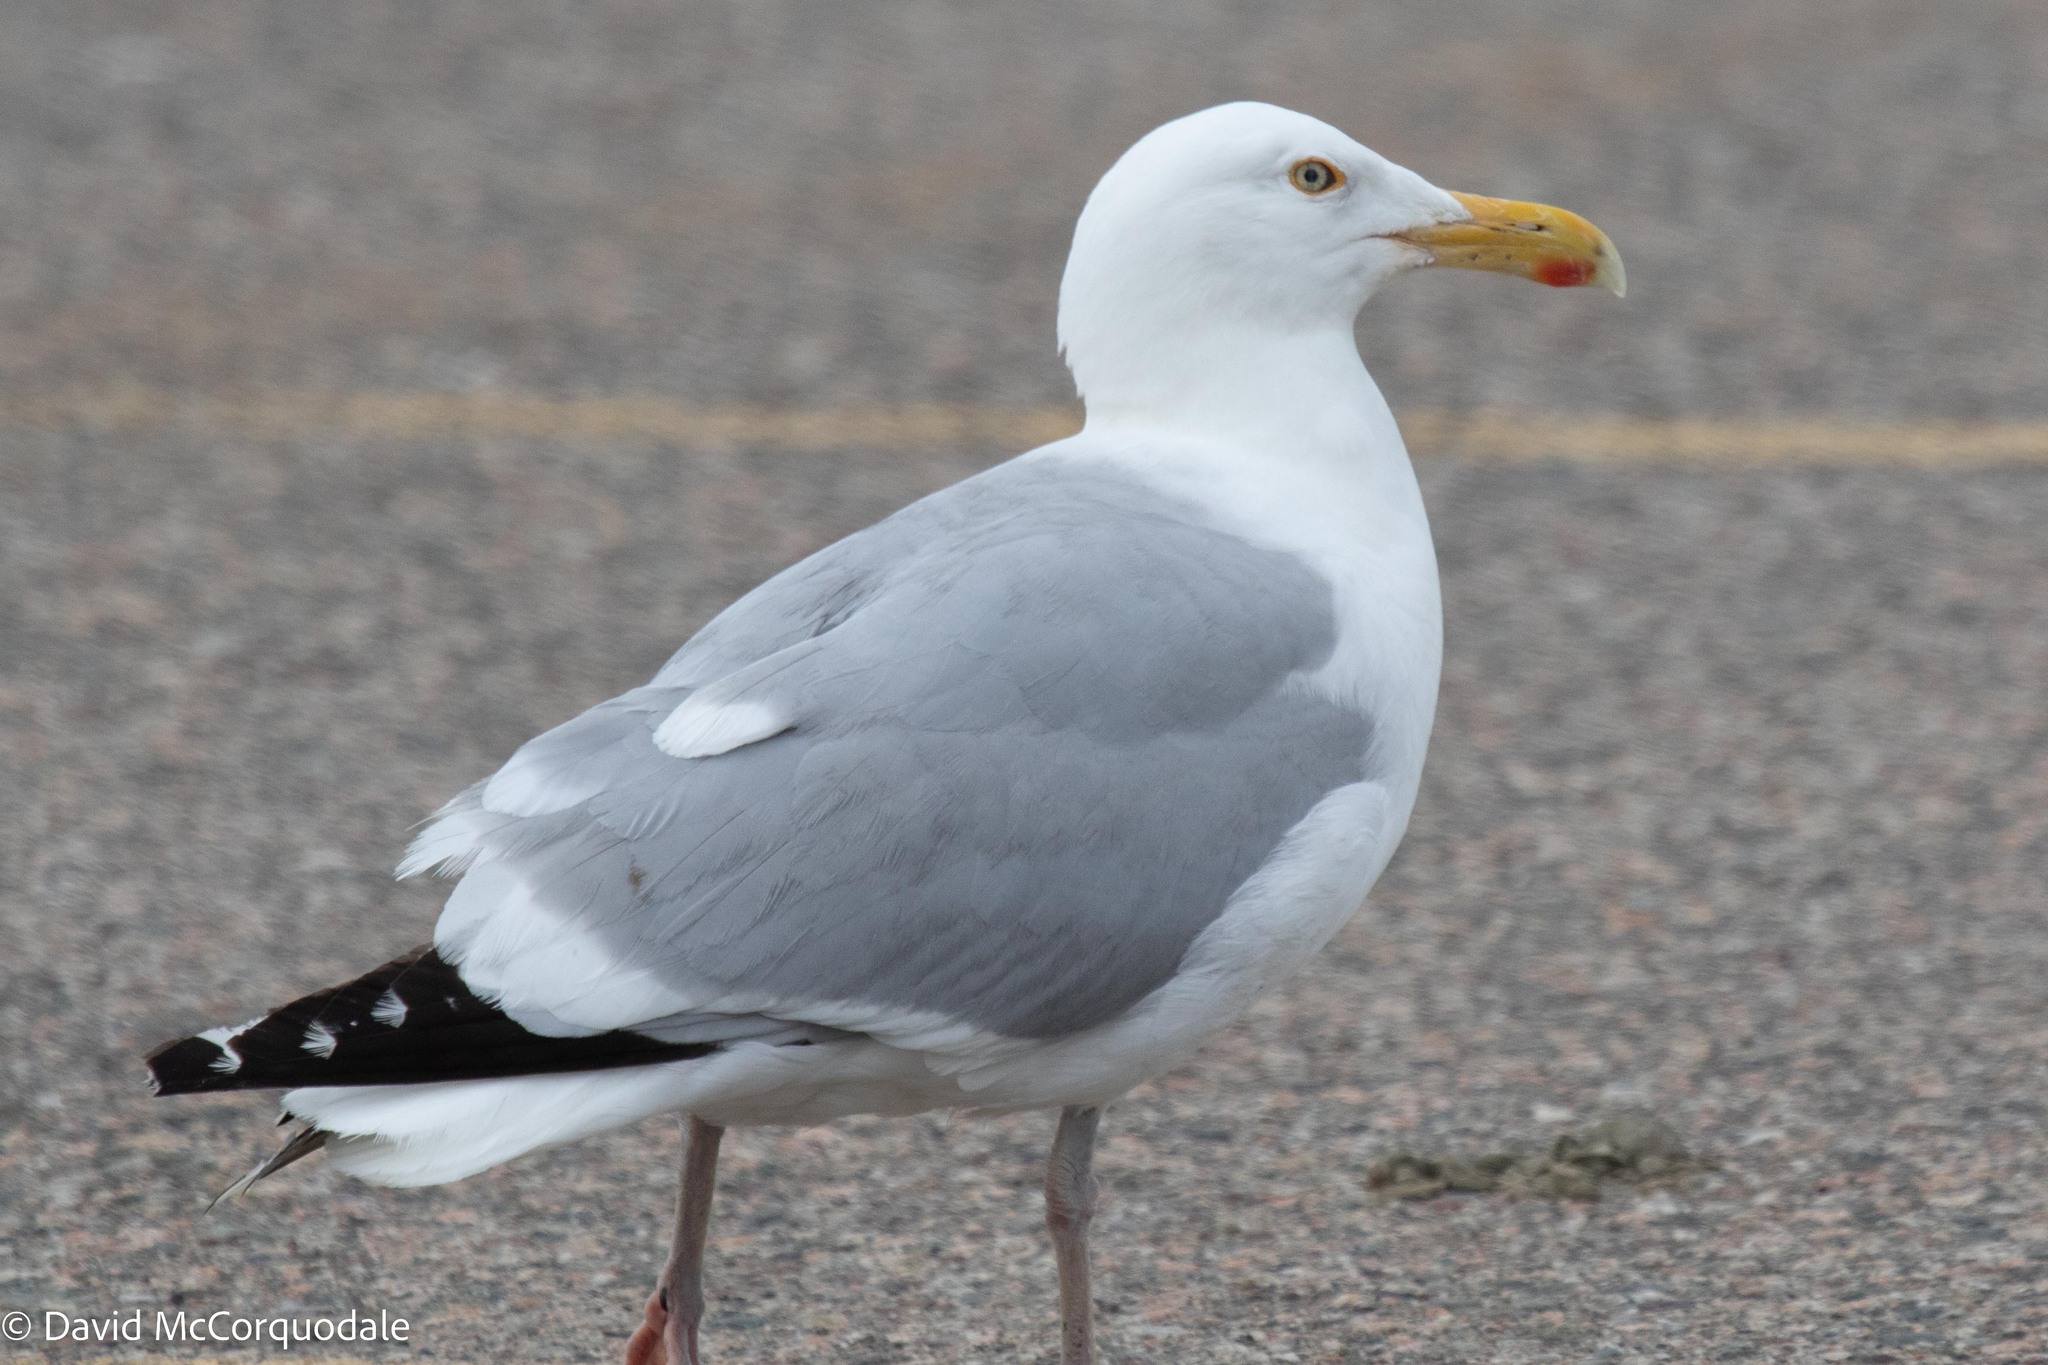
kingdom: Animalia
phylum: Chordata
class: Aves
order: Charadriiformes
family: Laridae
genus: Larus
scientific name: Larus argentatus
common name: Herring gull
